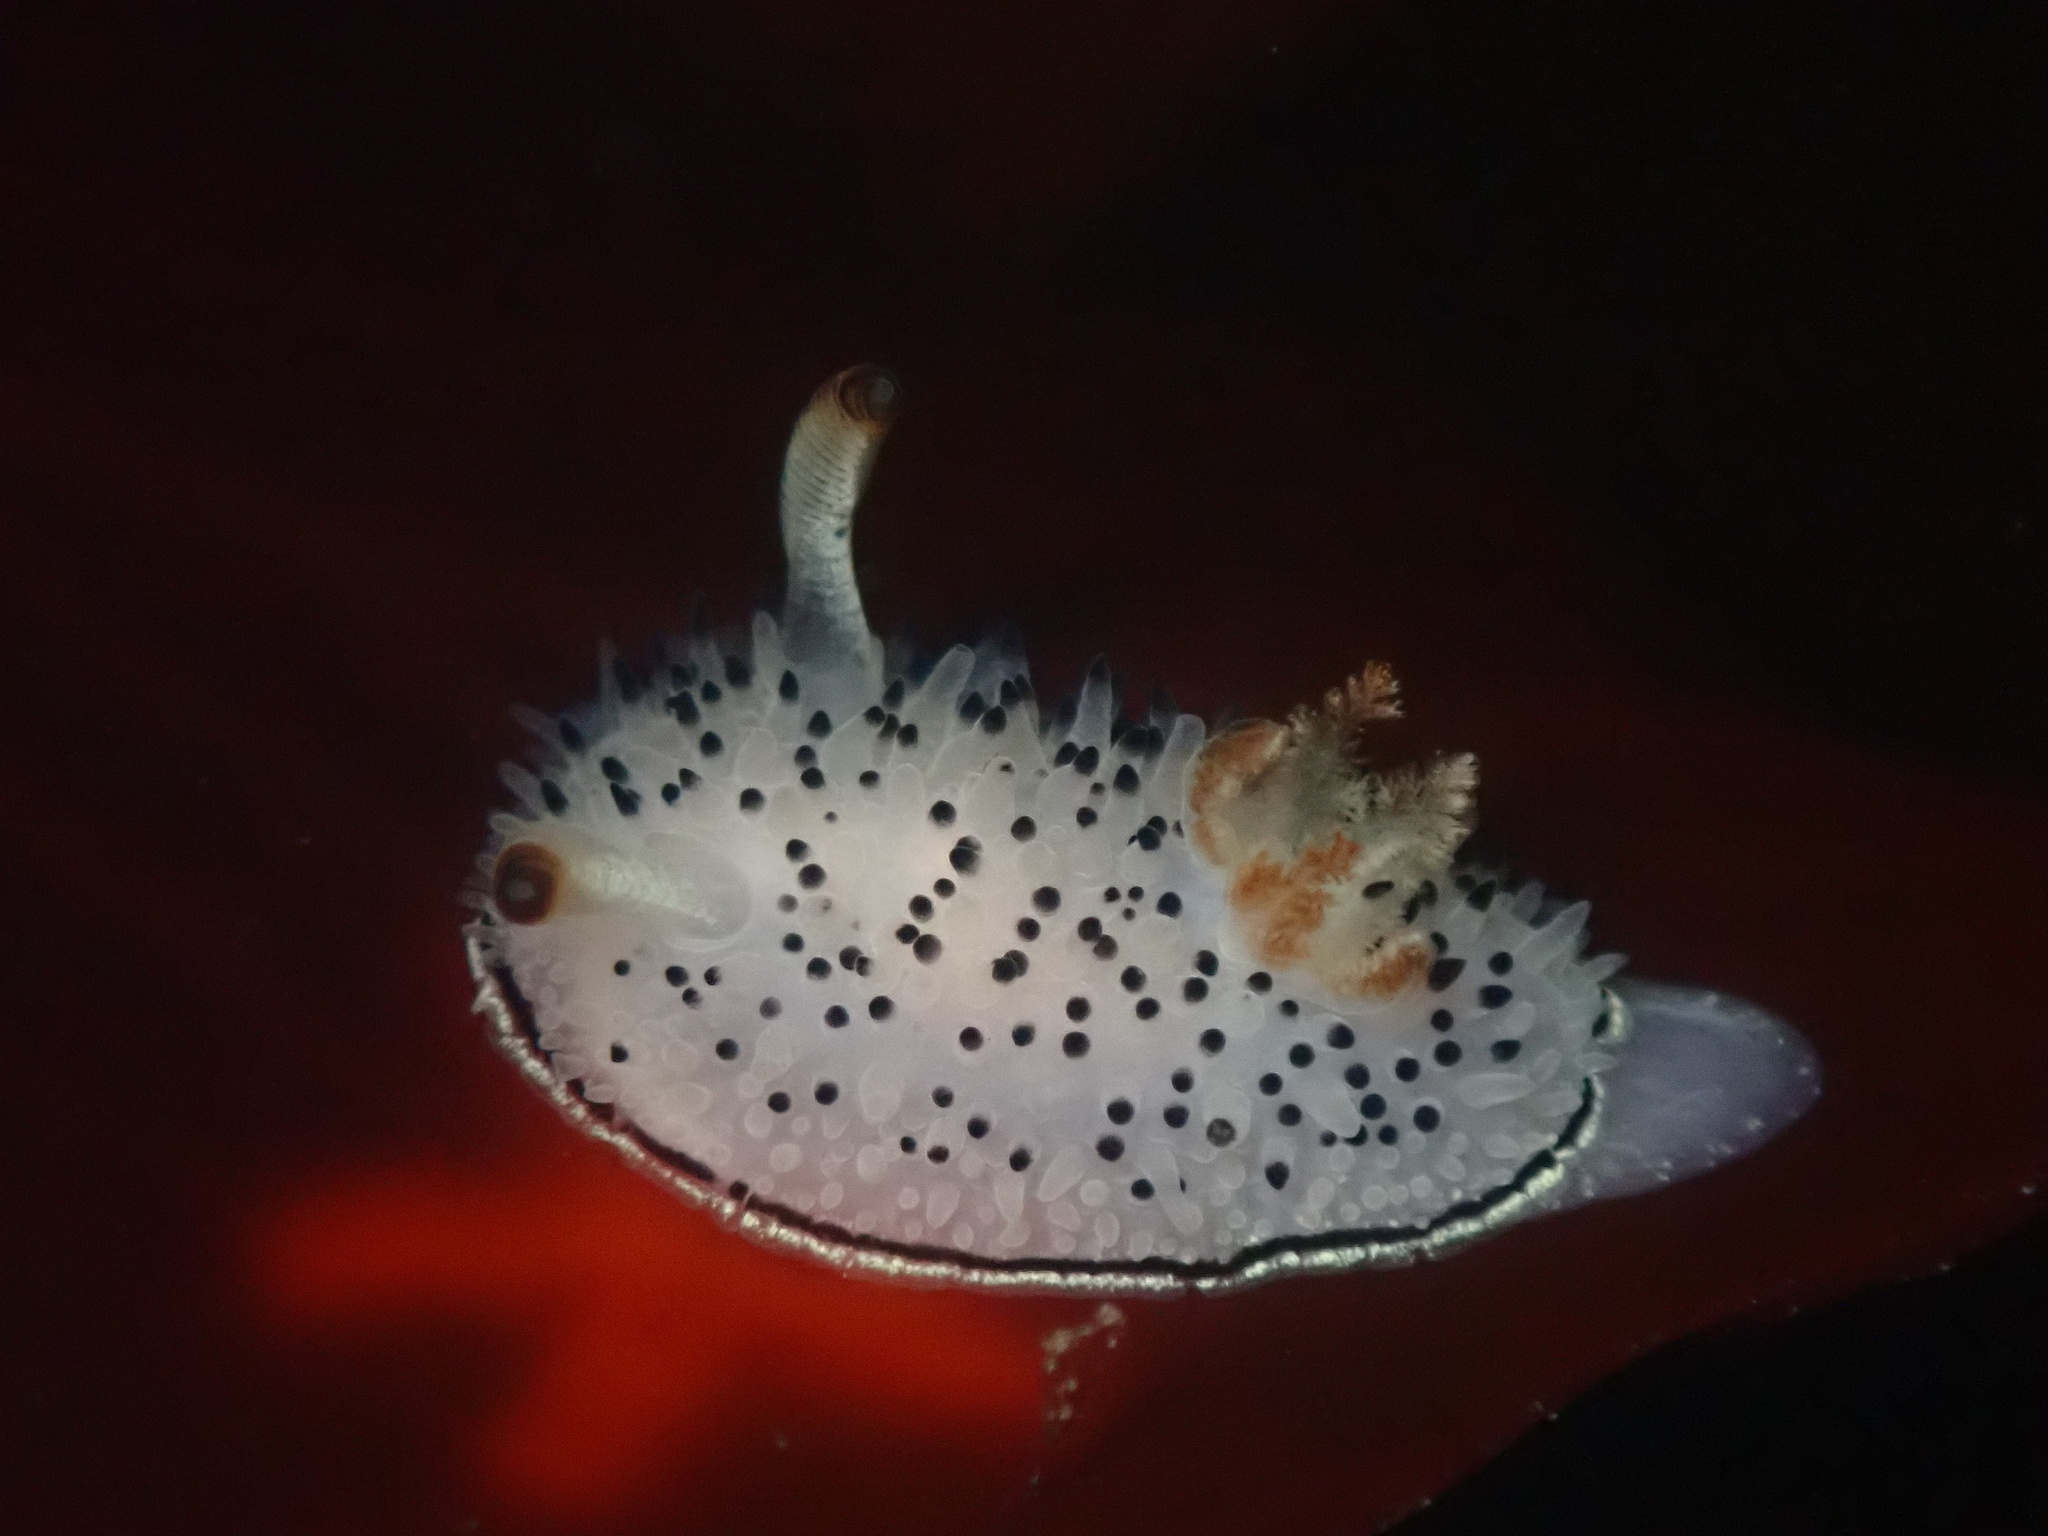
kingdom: Animalia
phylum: Mollusca
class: Gastropoda
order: Nudibranchia
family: Onchidorididae
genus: Acanthodoris
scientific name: Acanthodoris rhodoceras
